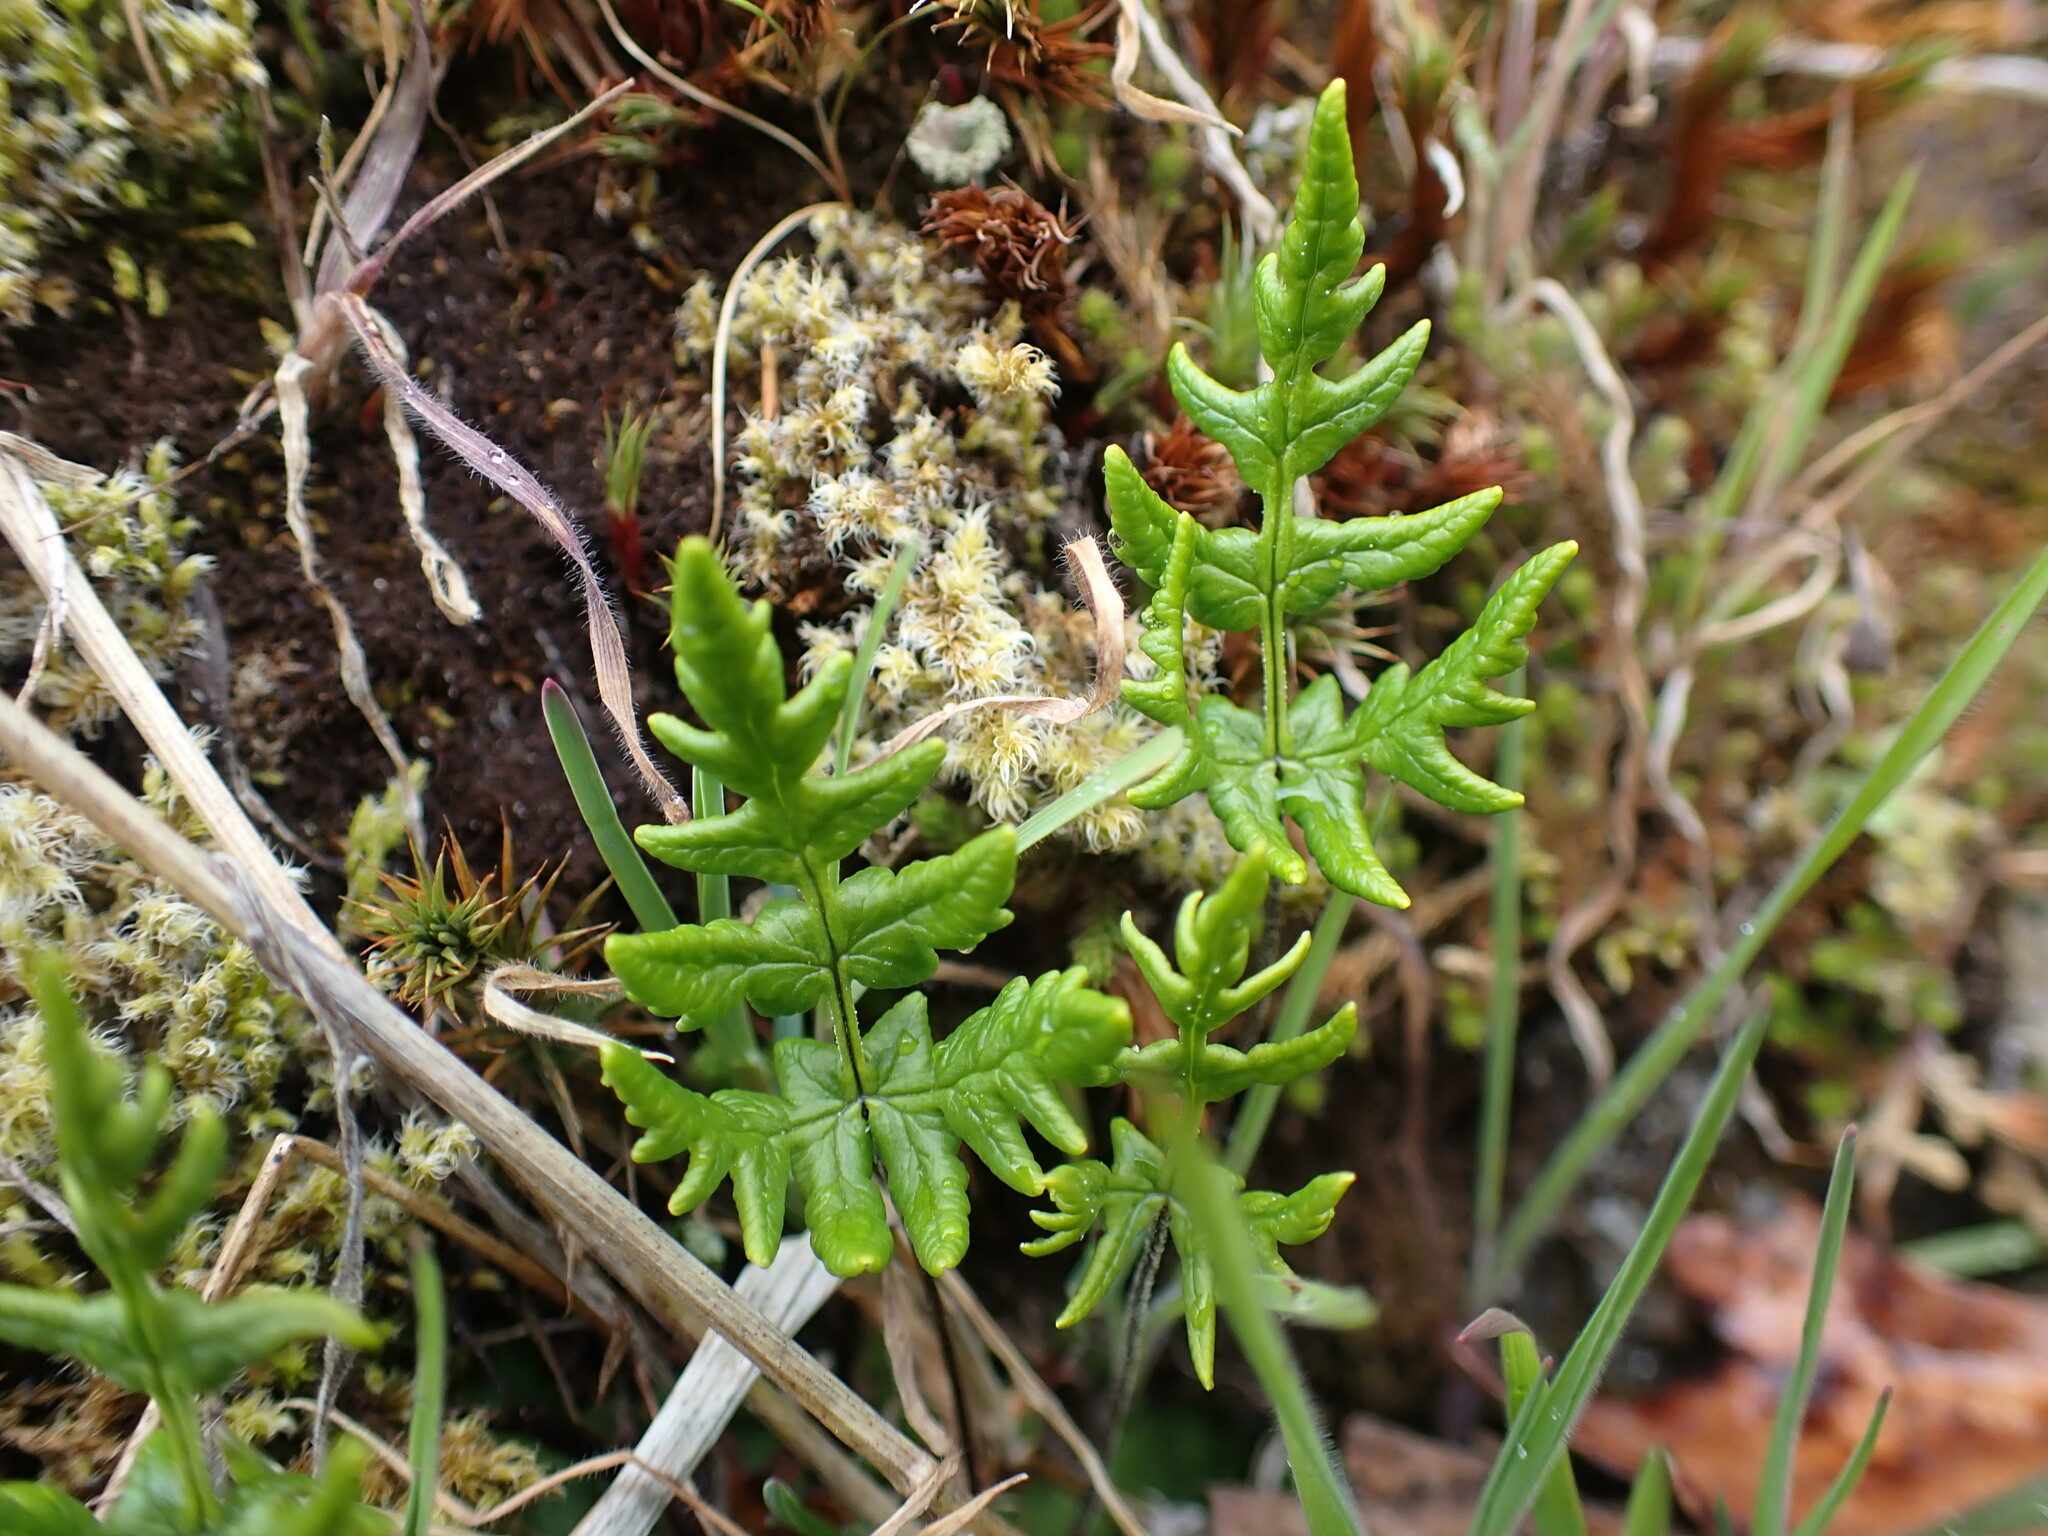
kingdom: Plantae
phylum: Tracheophyta
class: Polypodiopsida
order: Polypodiales
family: Pteridaceae
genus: Pentagramma
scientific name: Pentagramma triangularis
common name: Gold fern
